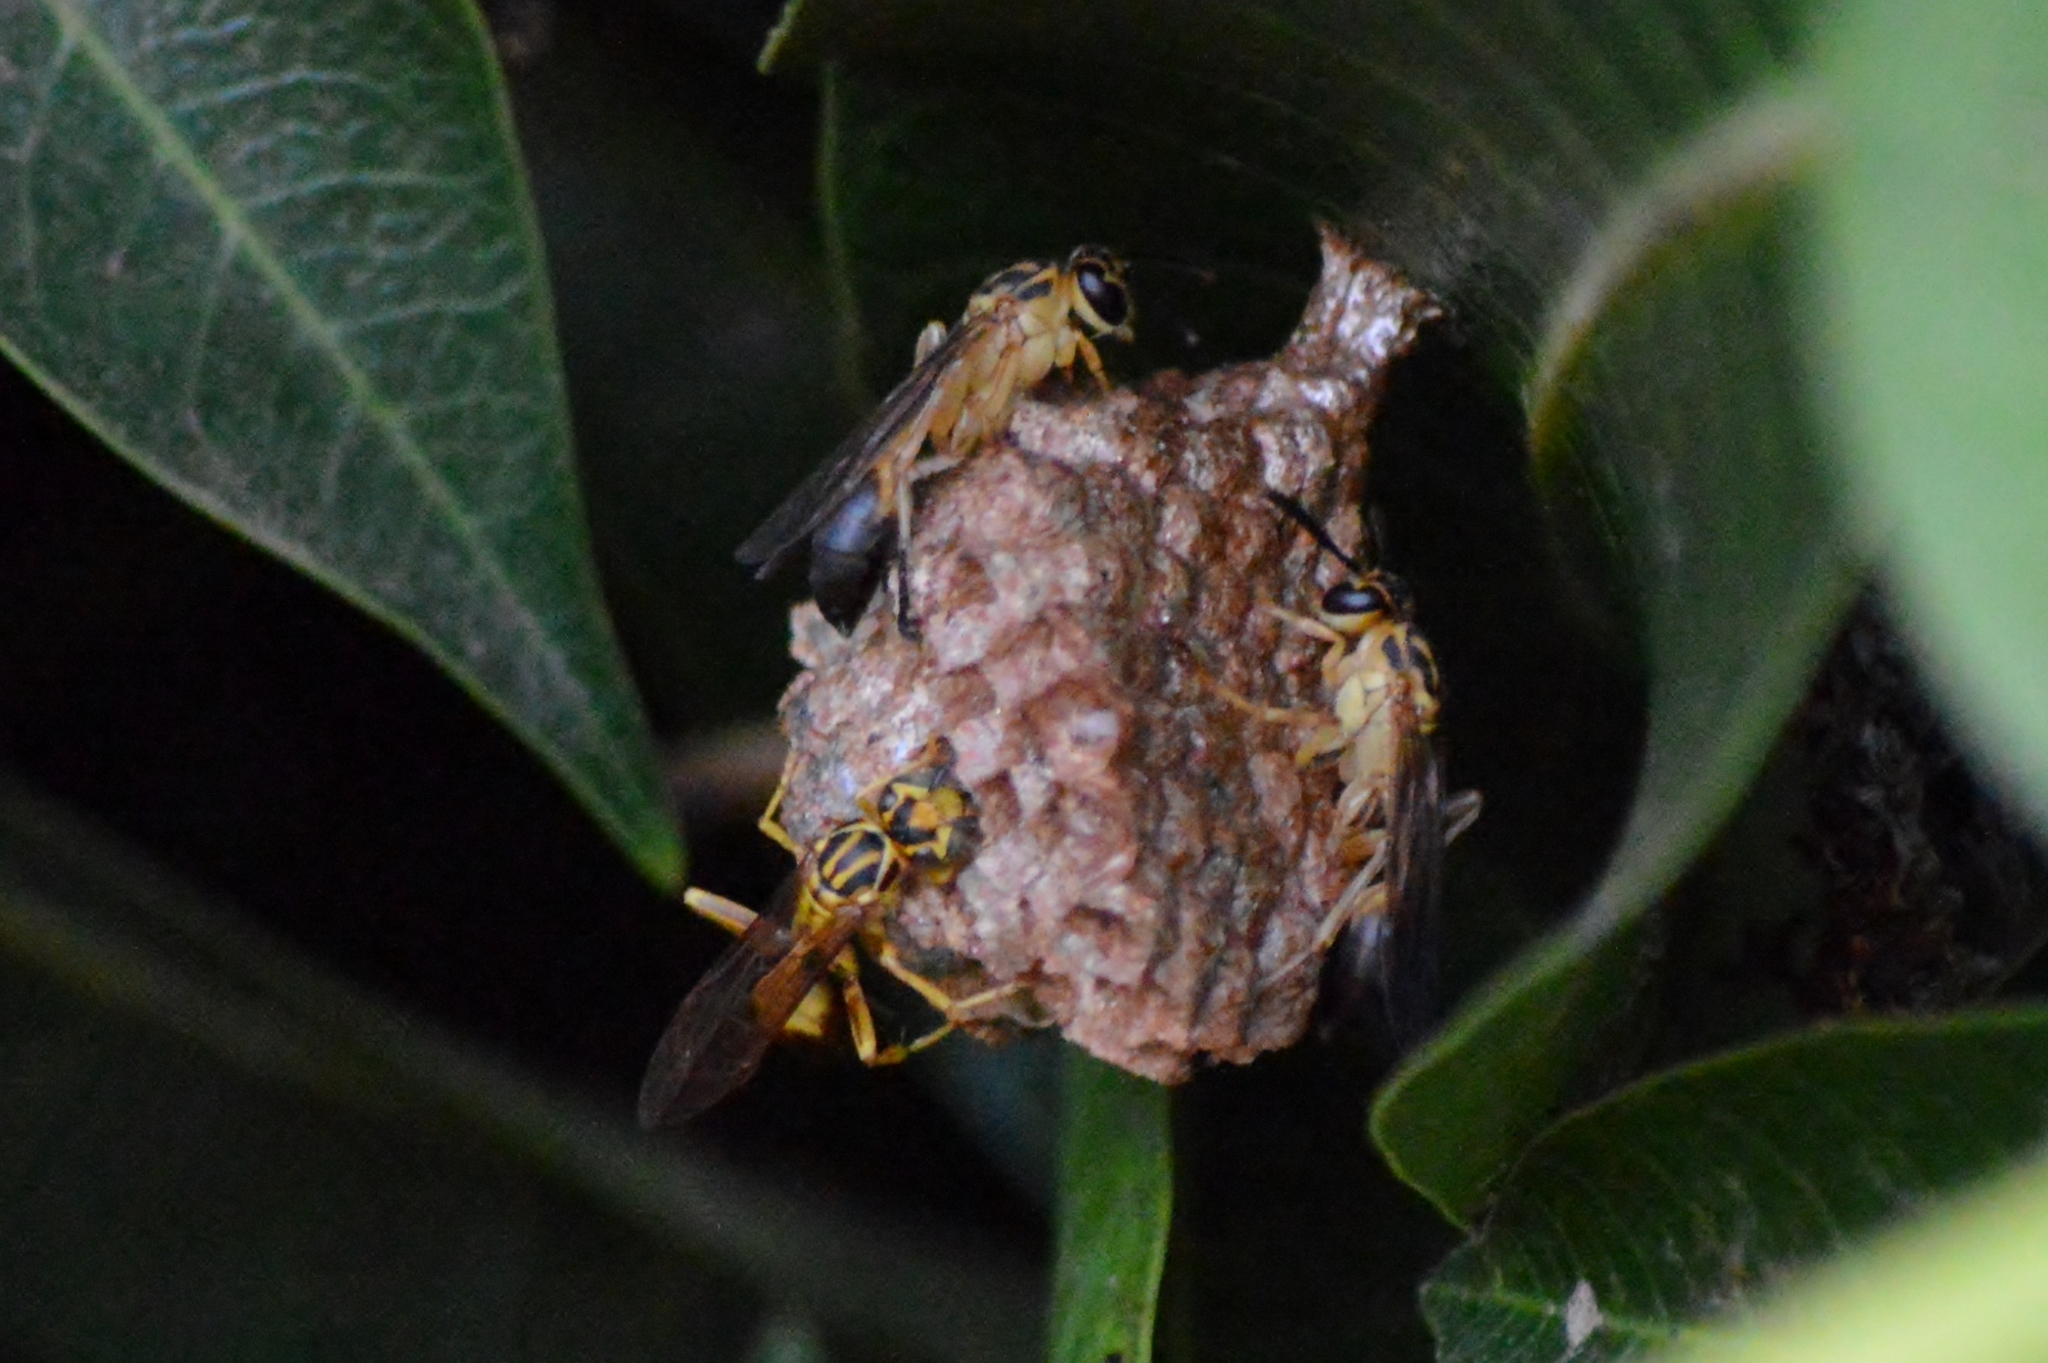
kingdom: Animalia
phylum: Arthropoda
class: Insecta
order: Hymenoptera
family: Vespidae
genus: Mischocyttarus
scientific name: Mischocyttarus cerberus
